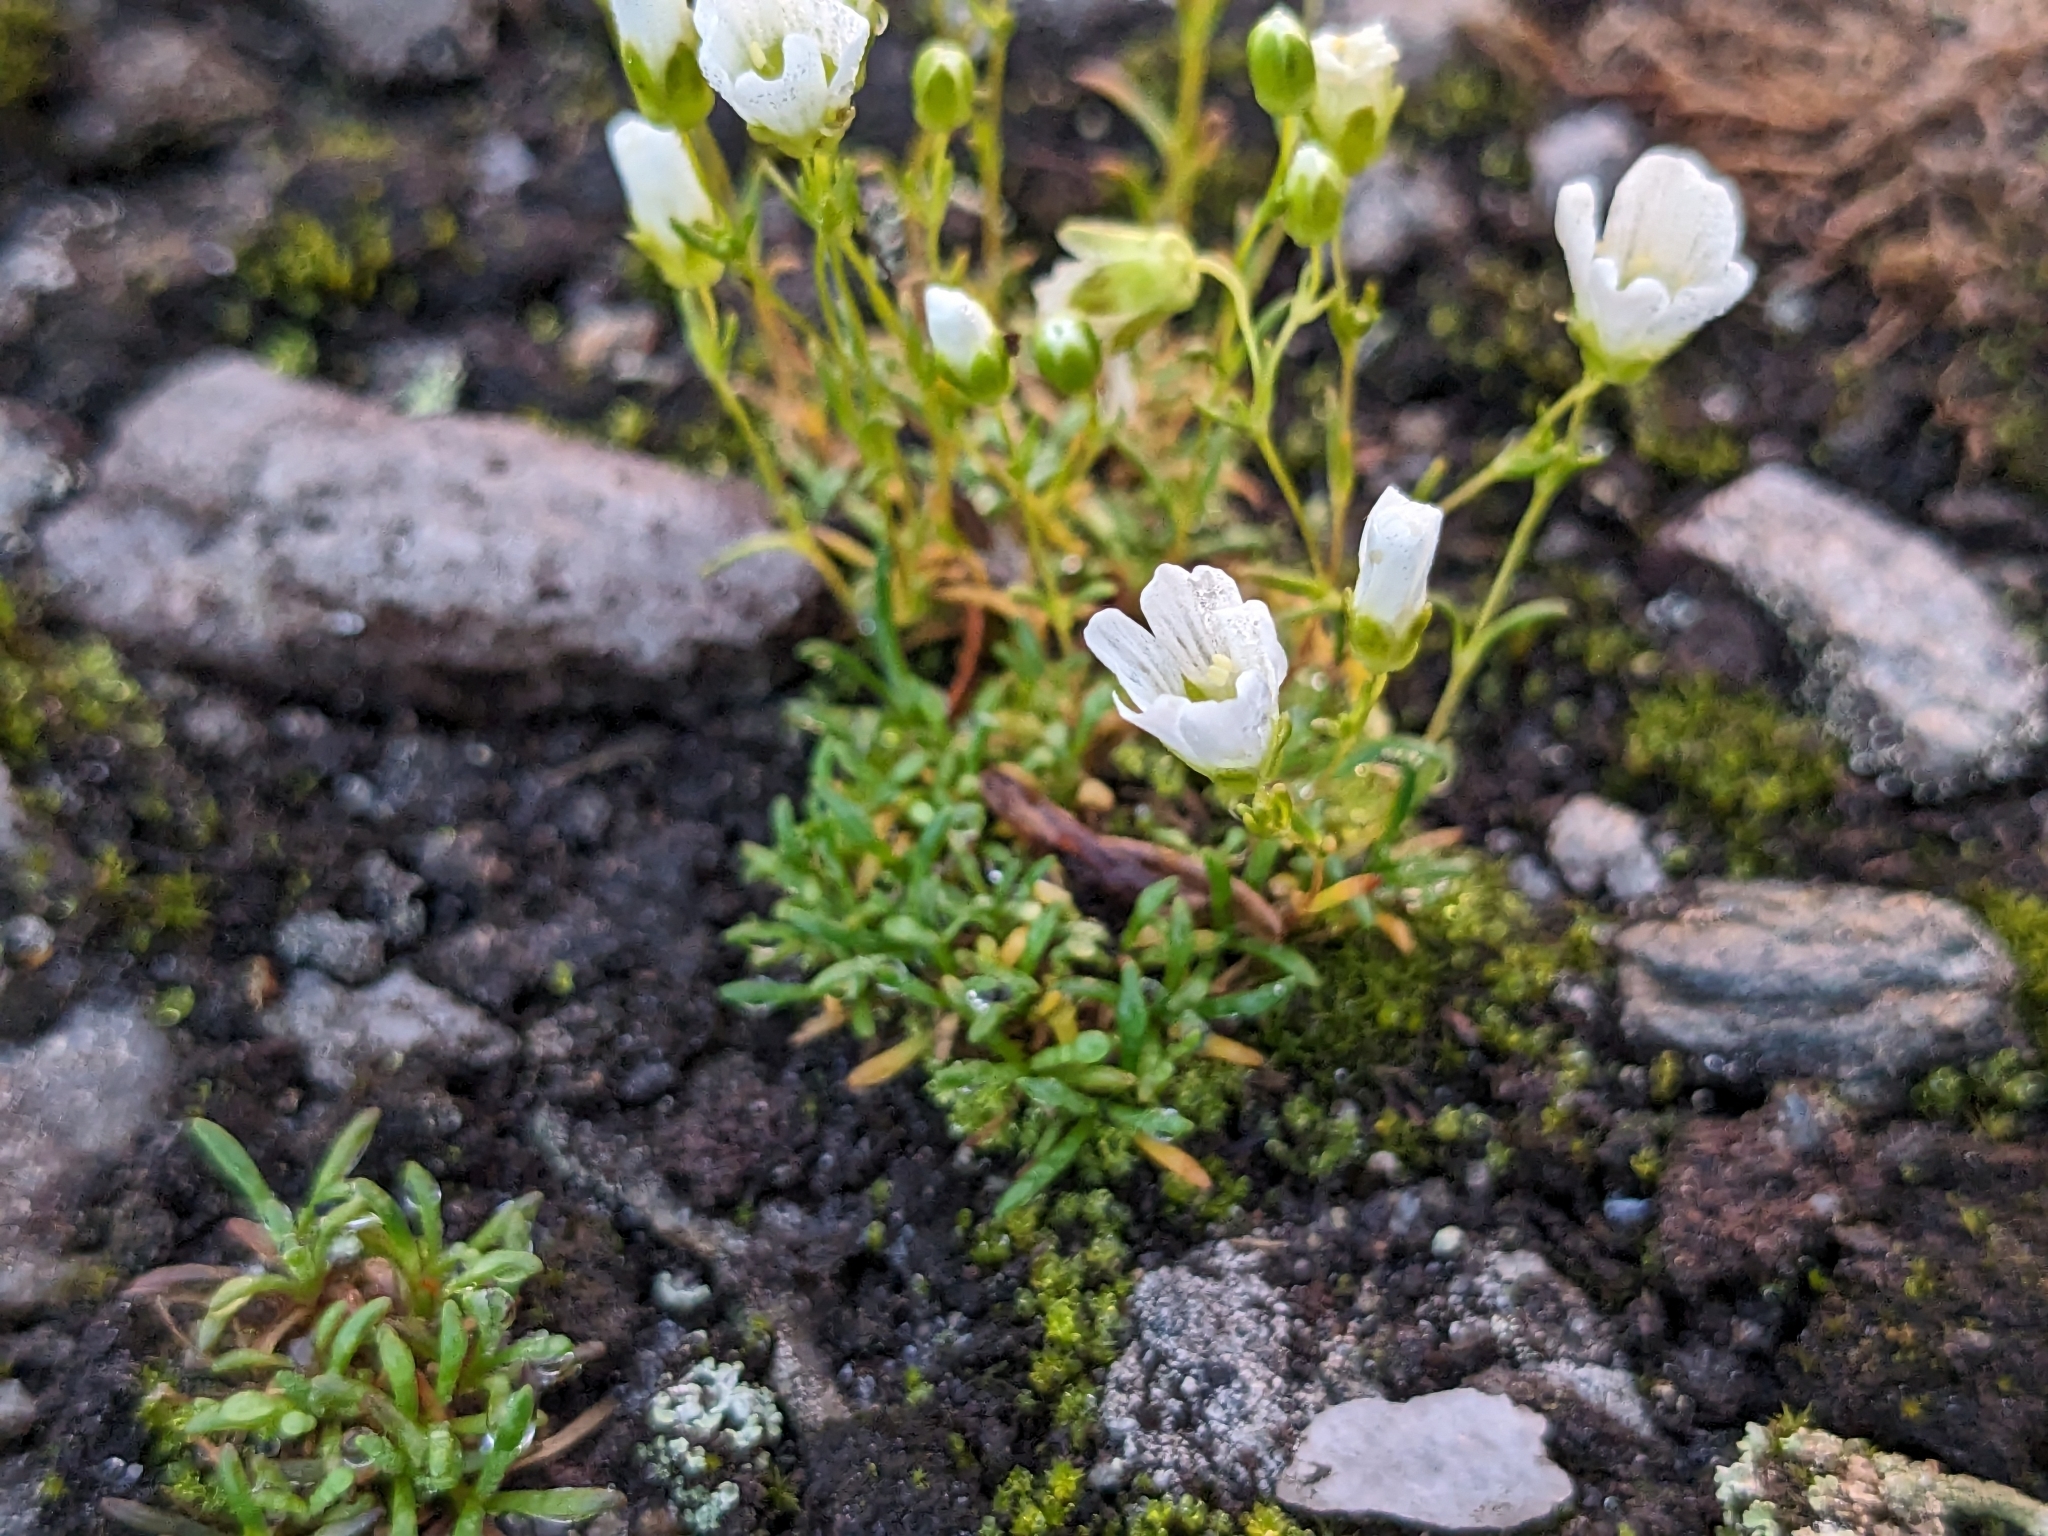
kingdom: Plantae
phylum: Tracheophyta
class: Magnoliopsida
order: Caryophyllales
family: Caryophyllaceae
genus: Geocarpon
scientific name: Geocarpon groenlandicum
